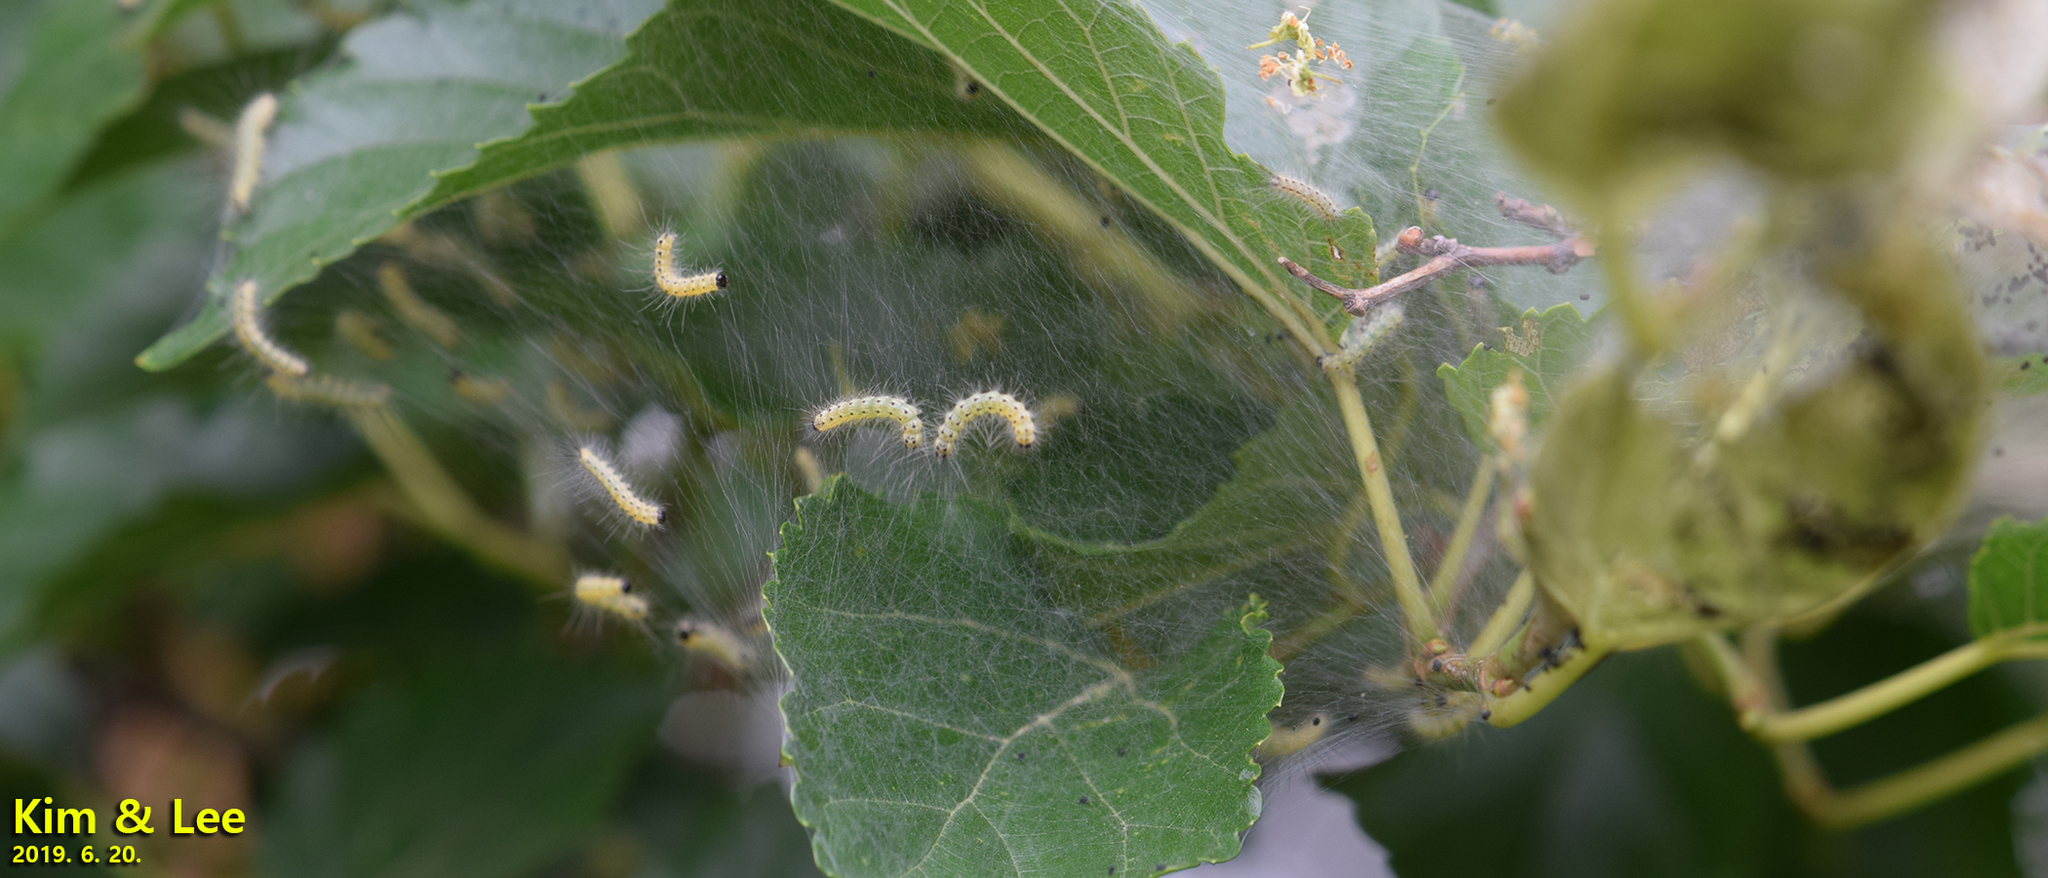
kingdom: Animalia
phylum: Arthropoda
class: Insecta
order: Lepidoptera
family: Erebidae
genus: Hyphantria
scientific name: Hyphantria cunea
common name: American white moth
